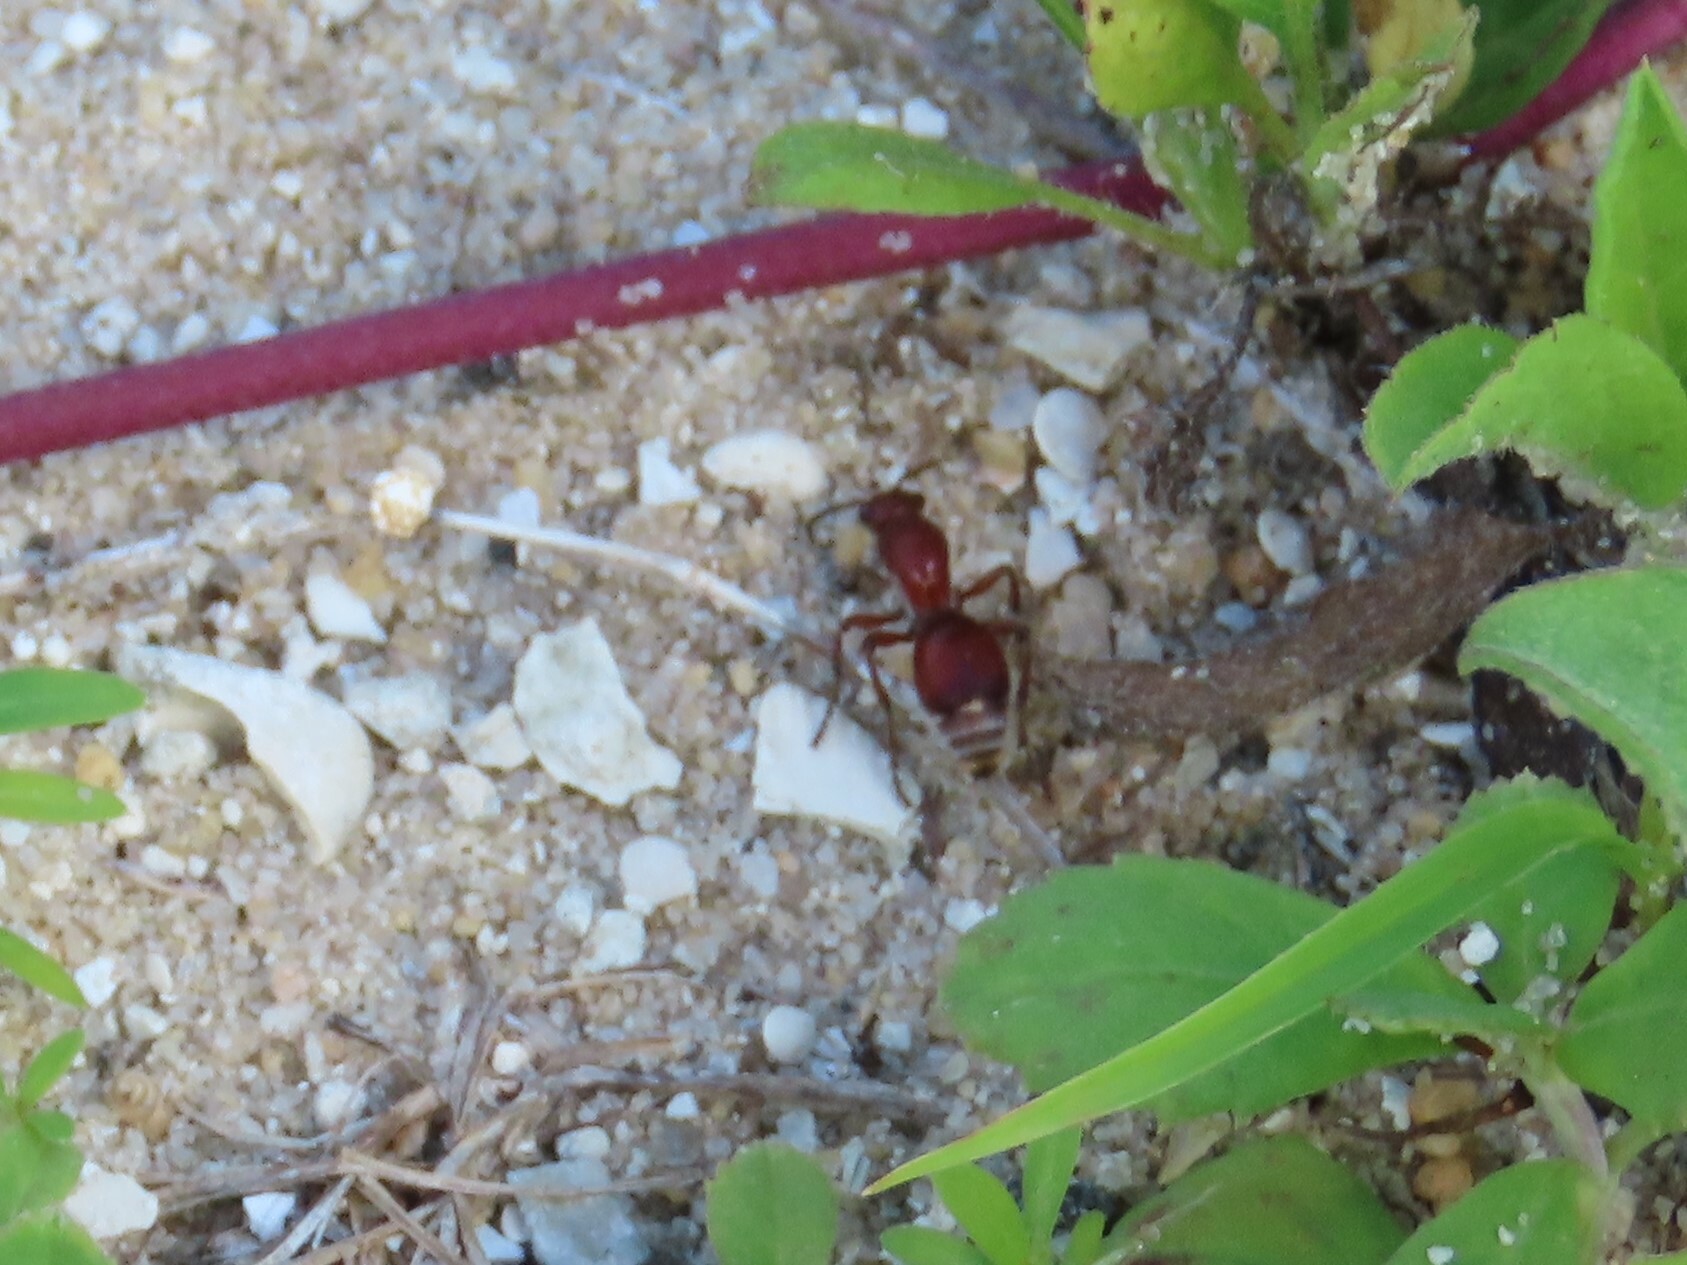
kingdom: Animalia
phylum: Arthropoda
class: Insecta
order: Hymenoptera
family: Mutillidae
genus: Dasymutilla
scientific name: Dasymutilla
